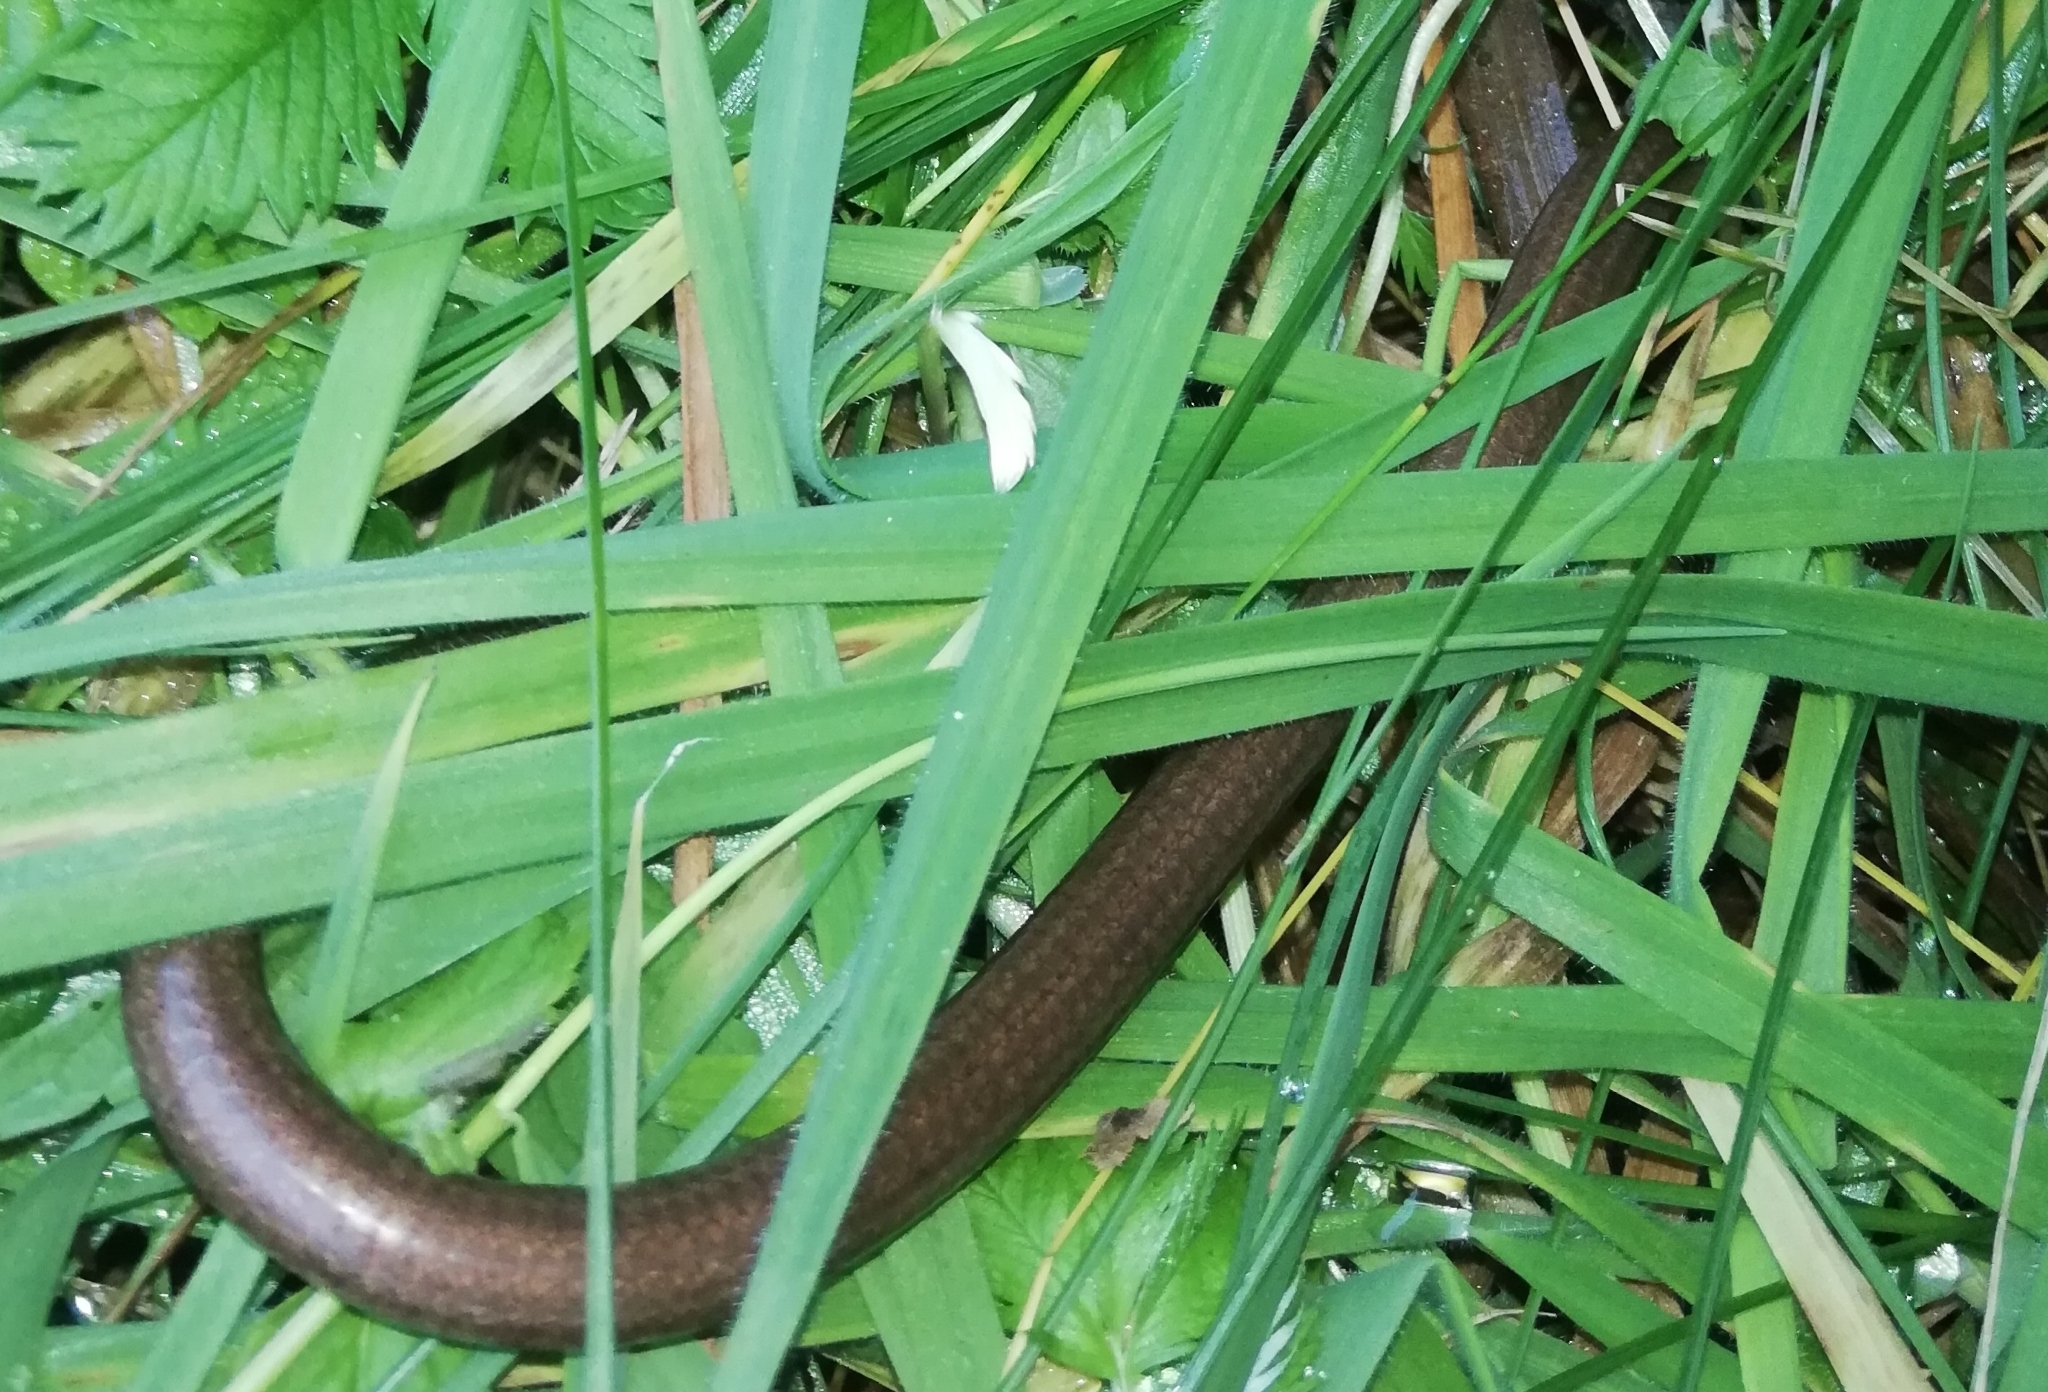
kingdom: Animalia
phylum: Chordata
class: Squamata
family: Anguidae
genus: Anguis
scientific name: Anguis fragilis
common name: Slow worm
